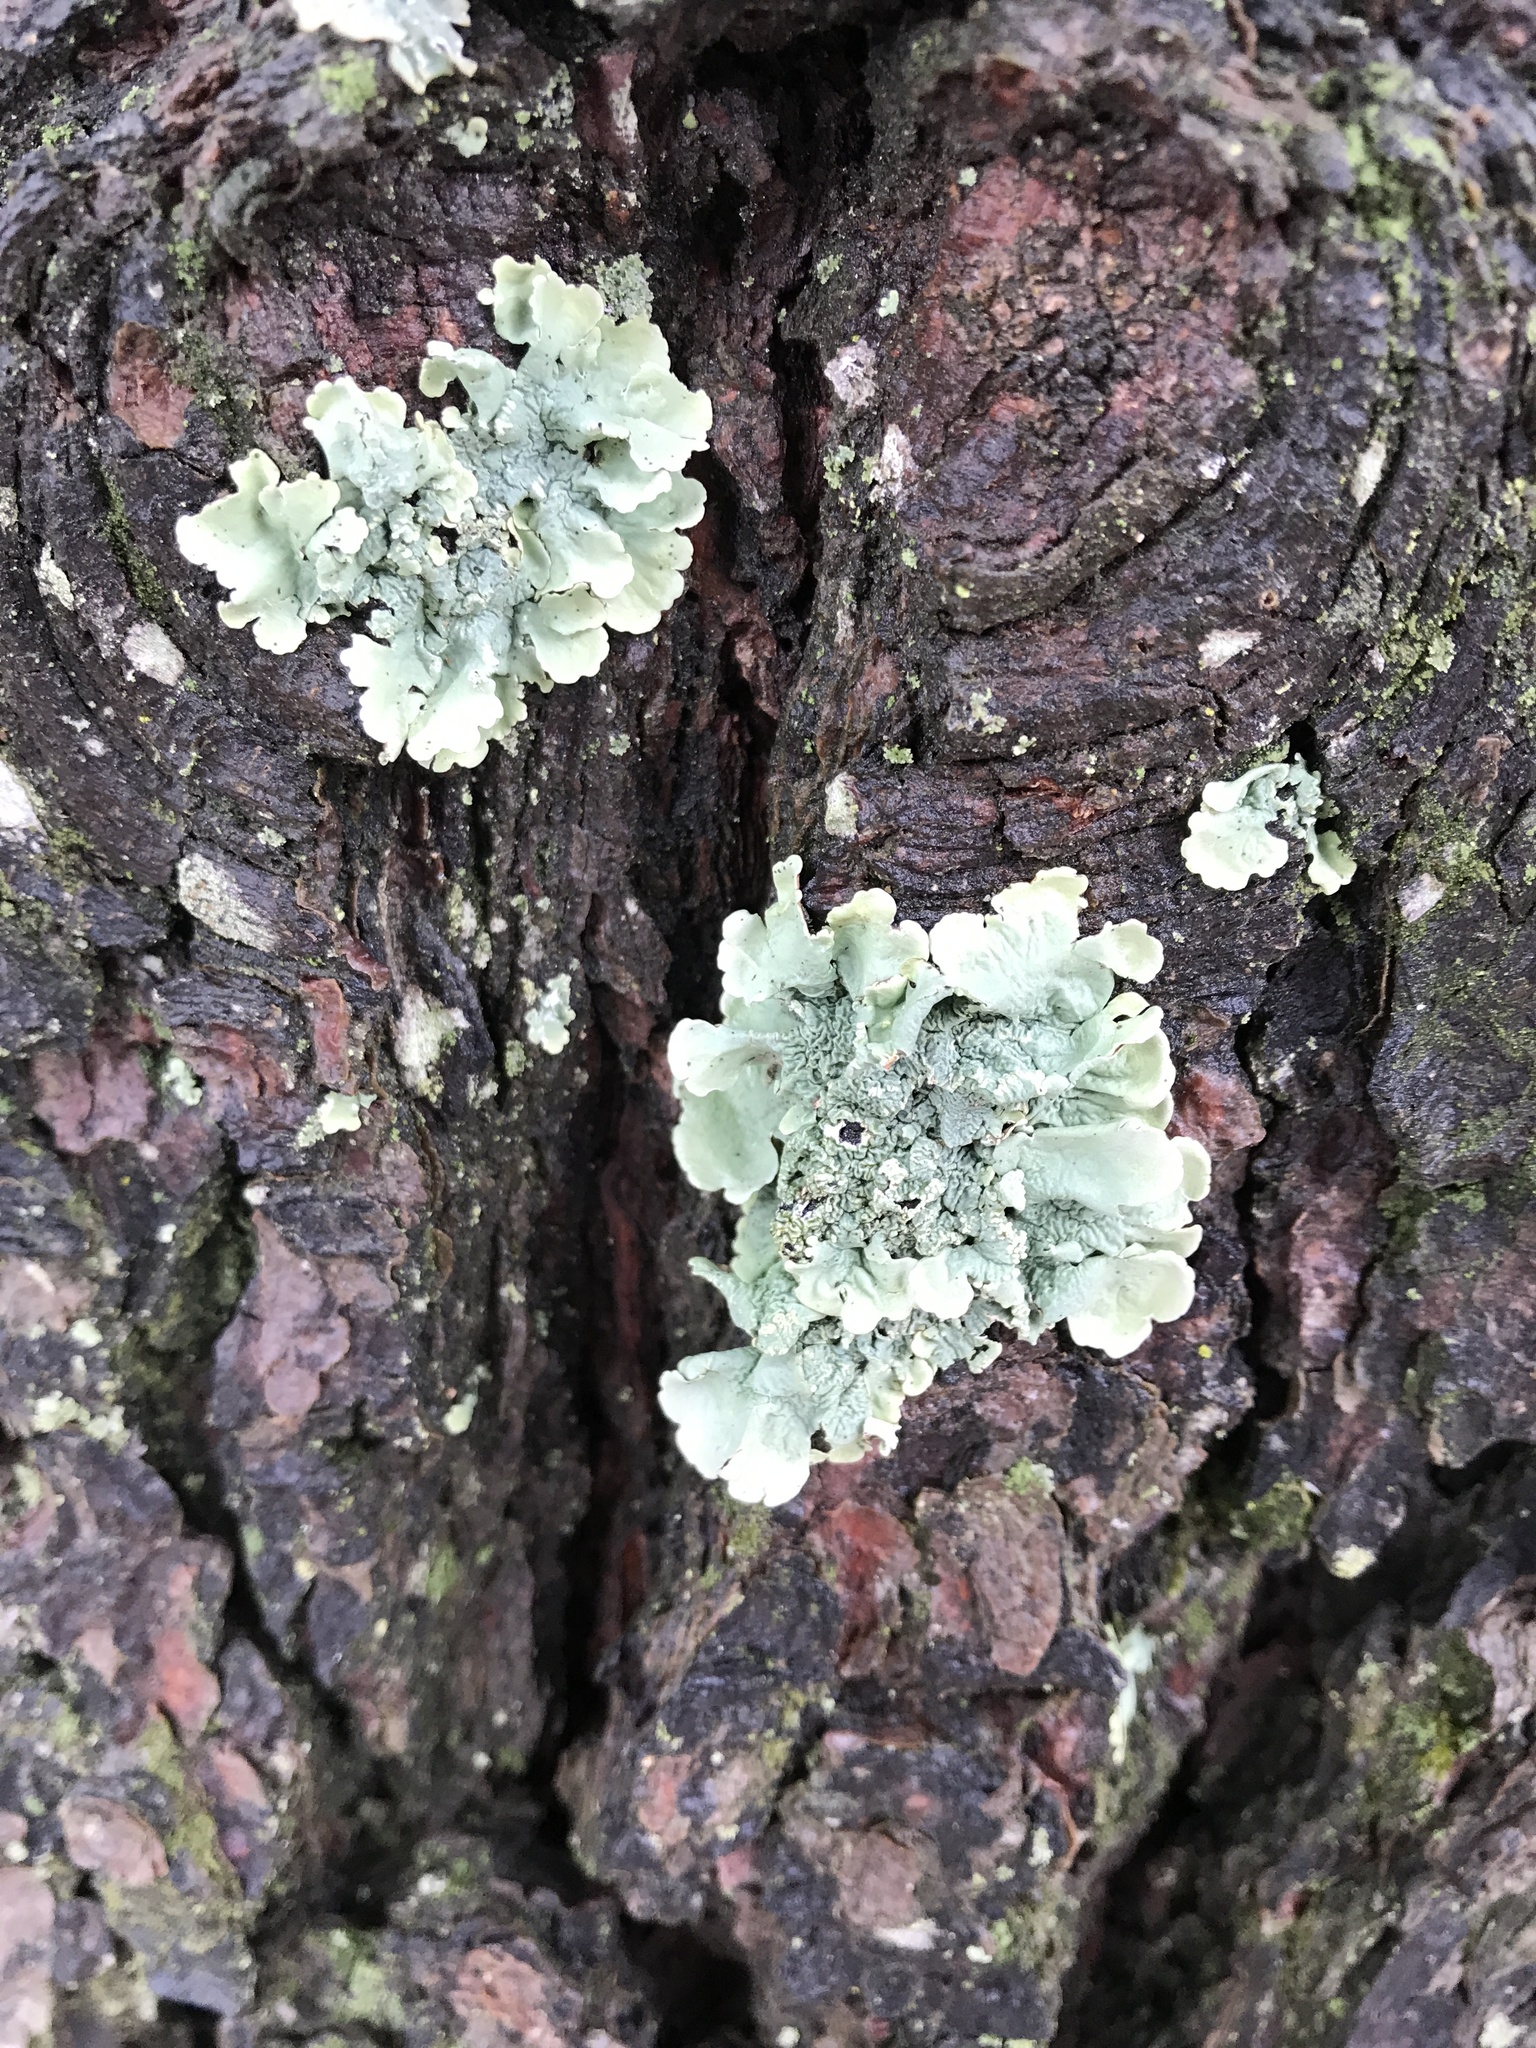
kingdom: Fungi
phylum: Ascomycota
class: Lecanoromycetes
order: Lecanorales
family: Parmeliaceae
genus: Flavoparmelia
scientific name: Flavoparmelia caperata
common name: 40-mile per hour lichen
